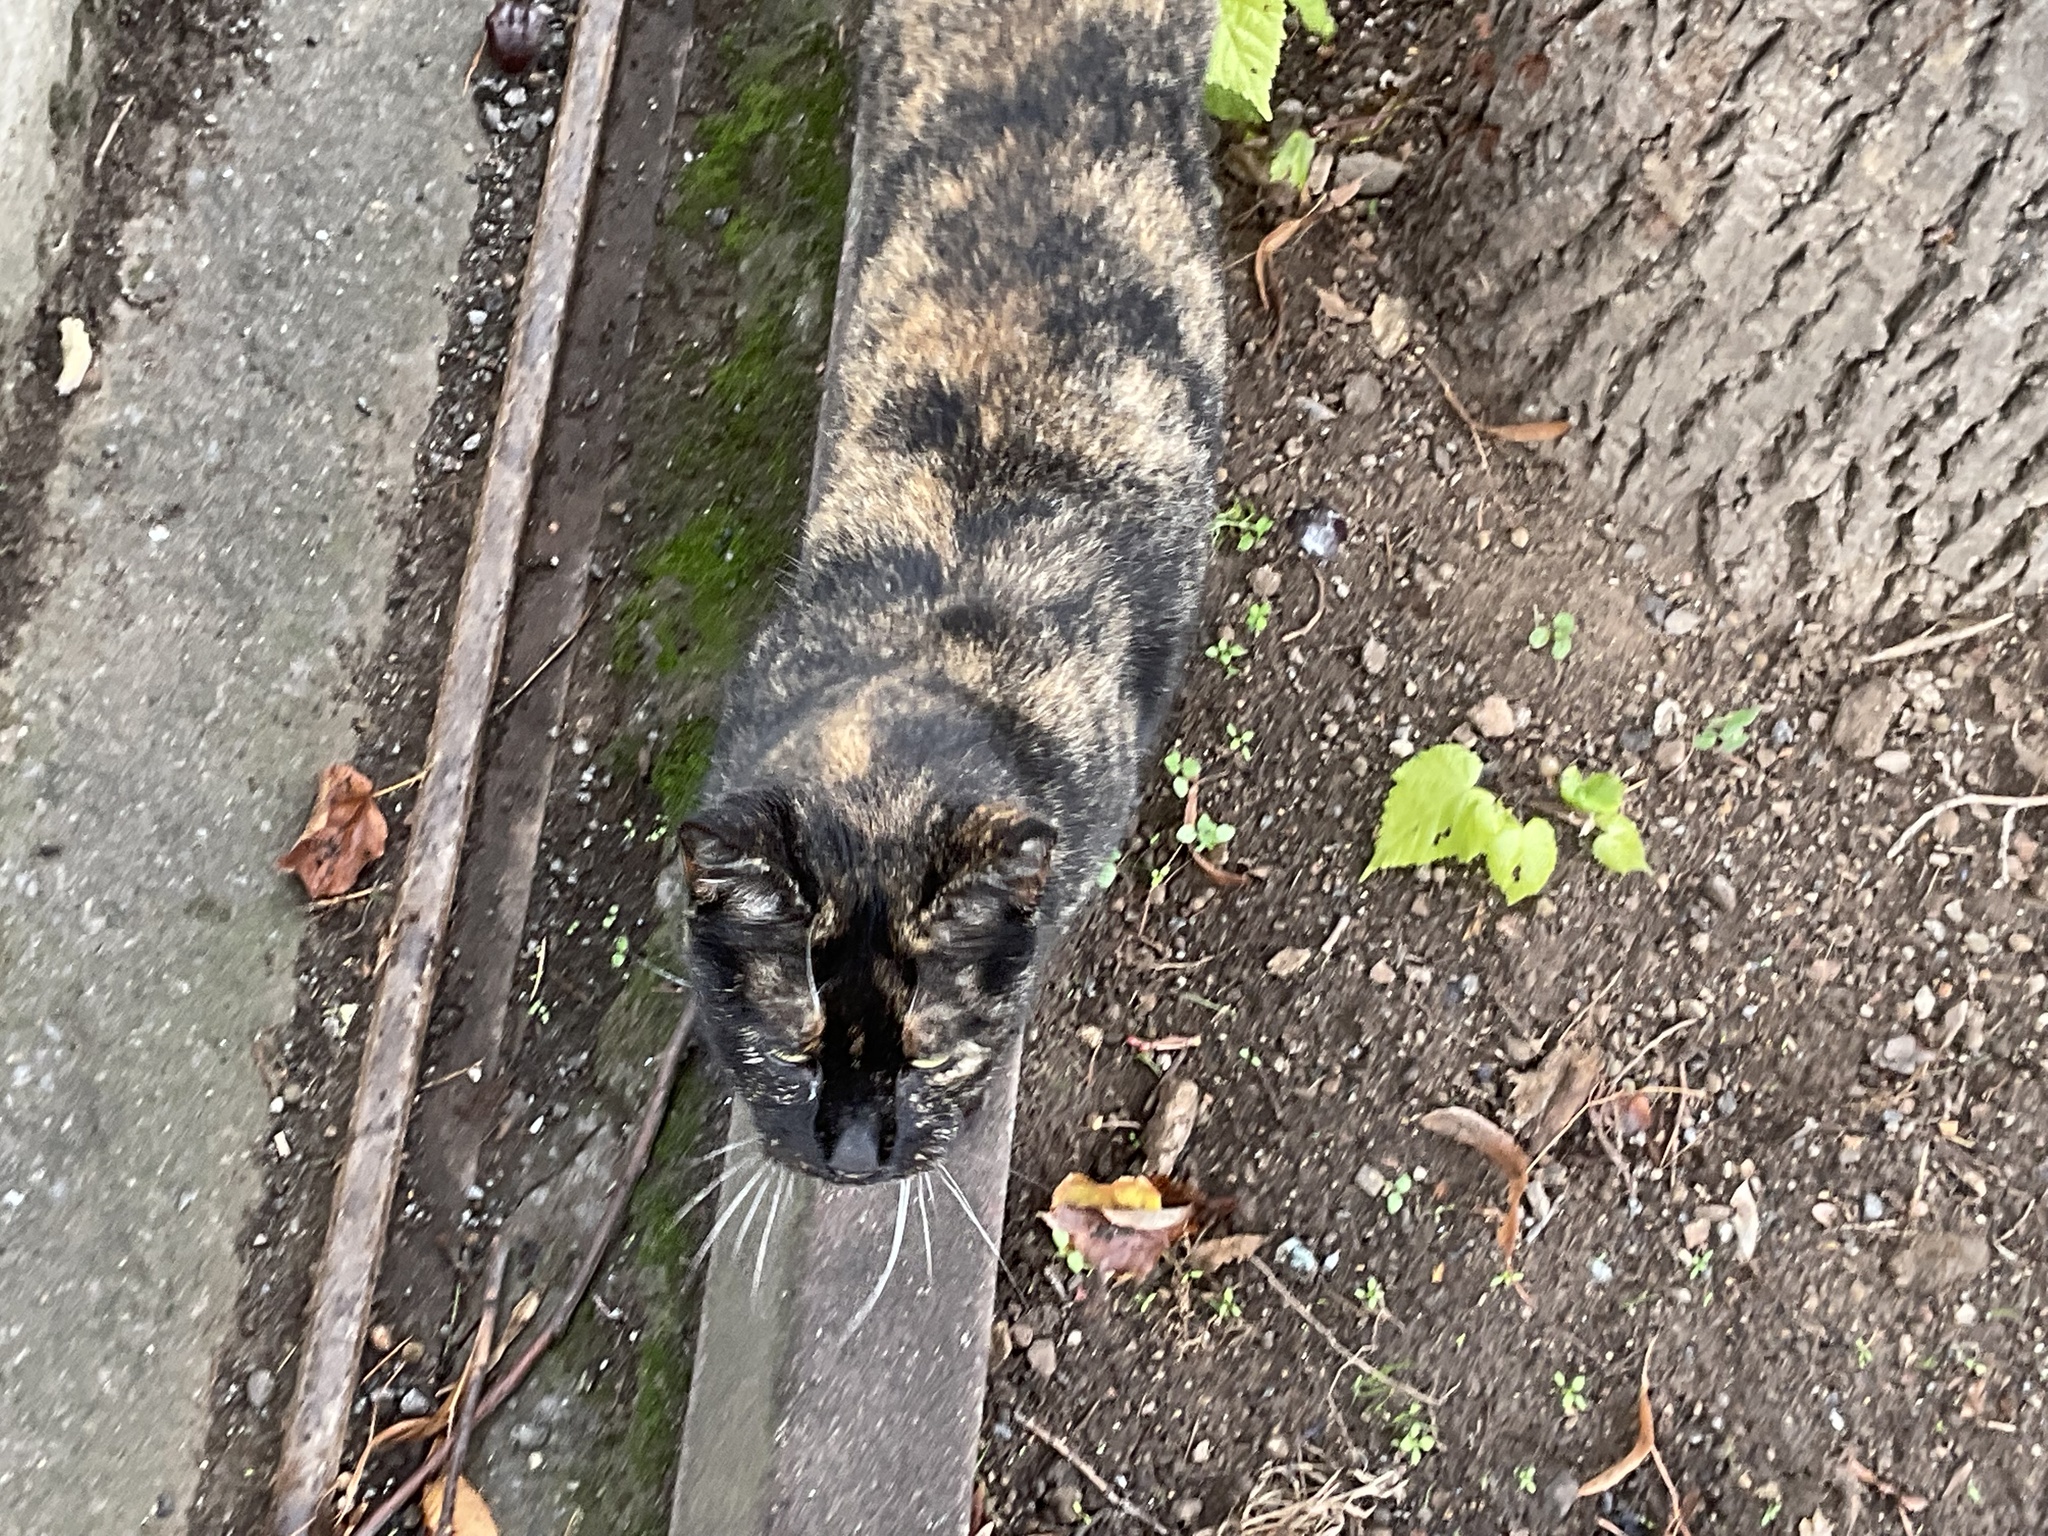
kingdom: Animalia
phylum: Chordata
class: Mammalia
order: Carnivora
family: Felidae
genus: Felis
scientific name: Felis catus
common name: Domestic cat
